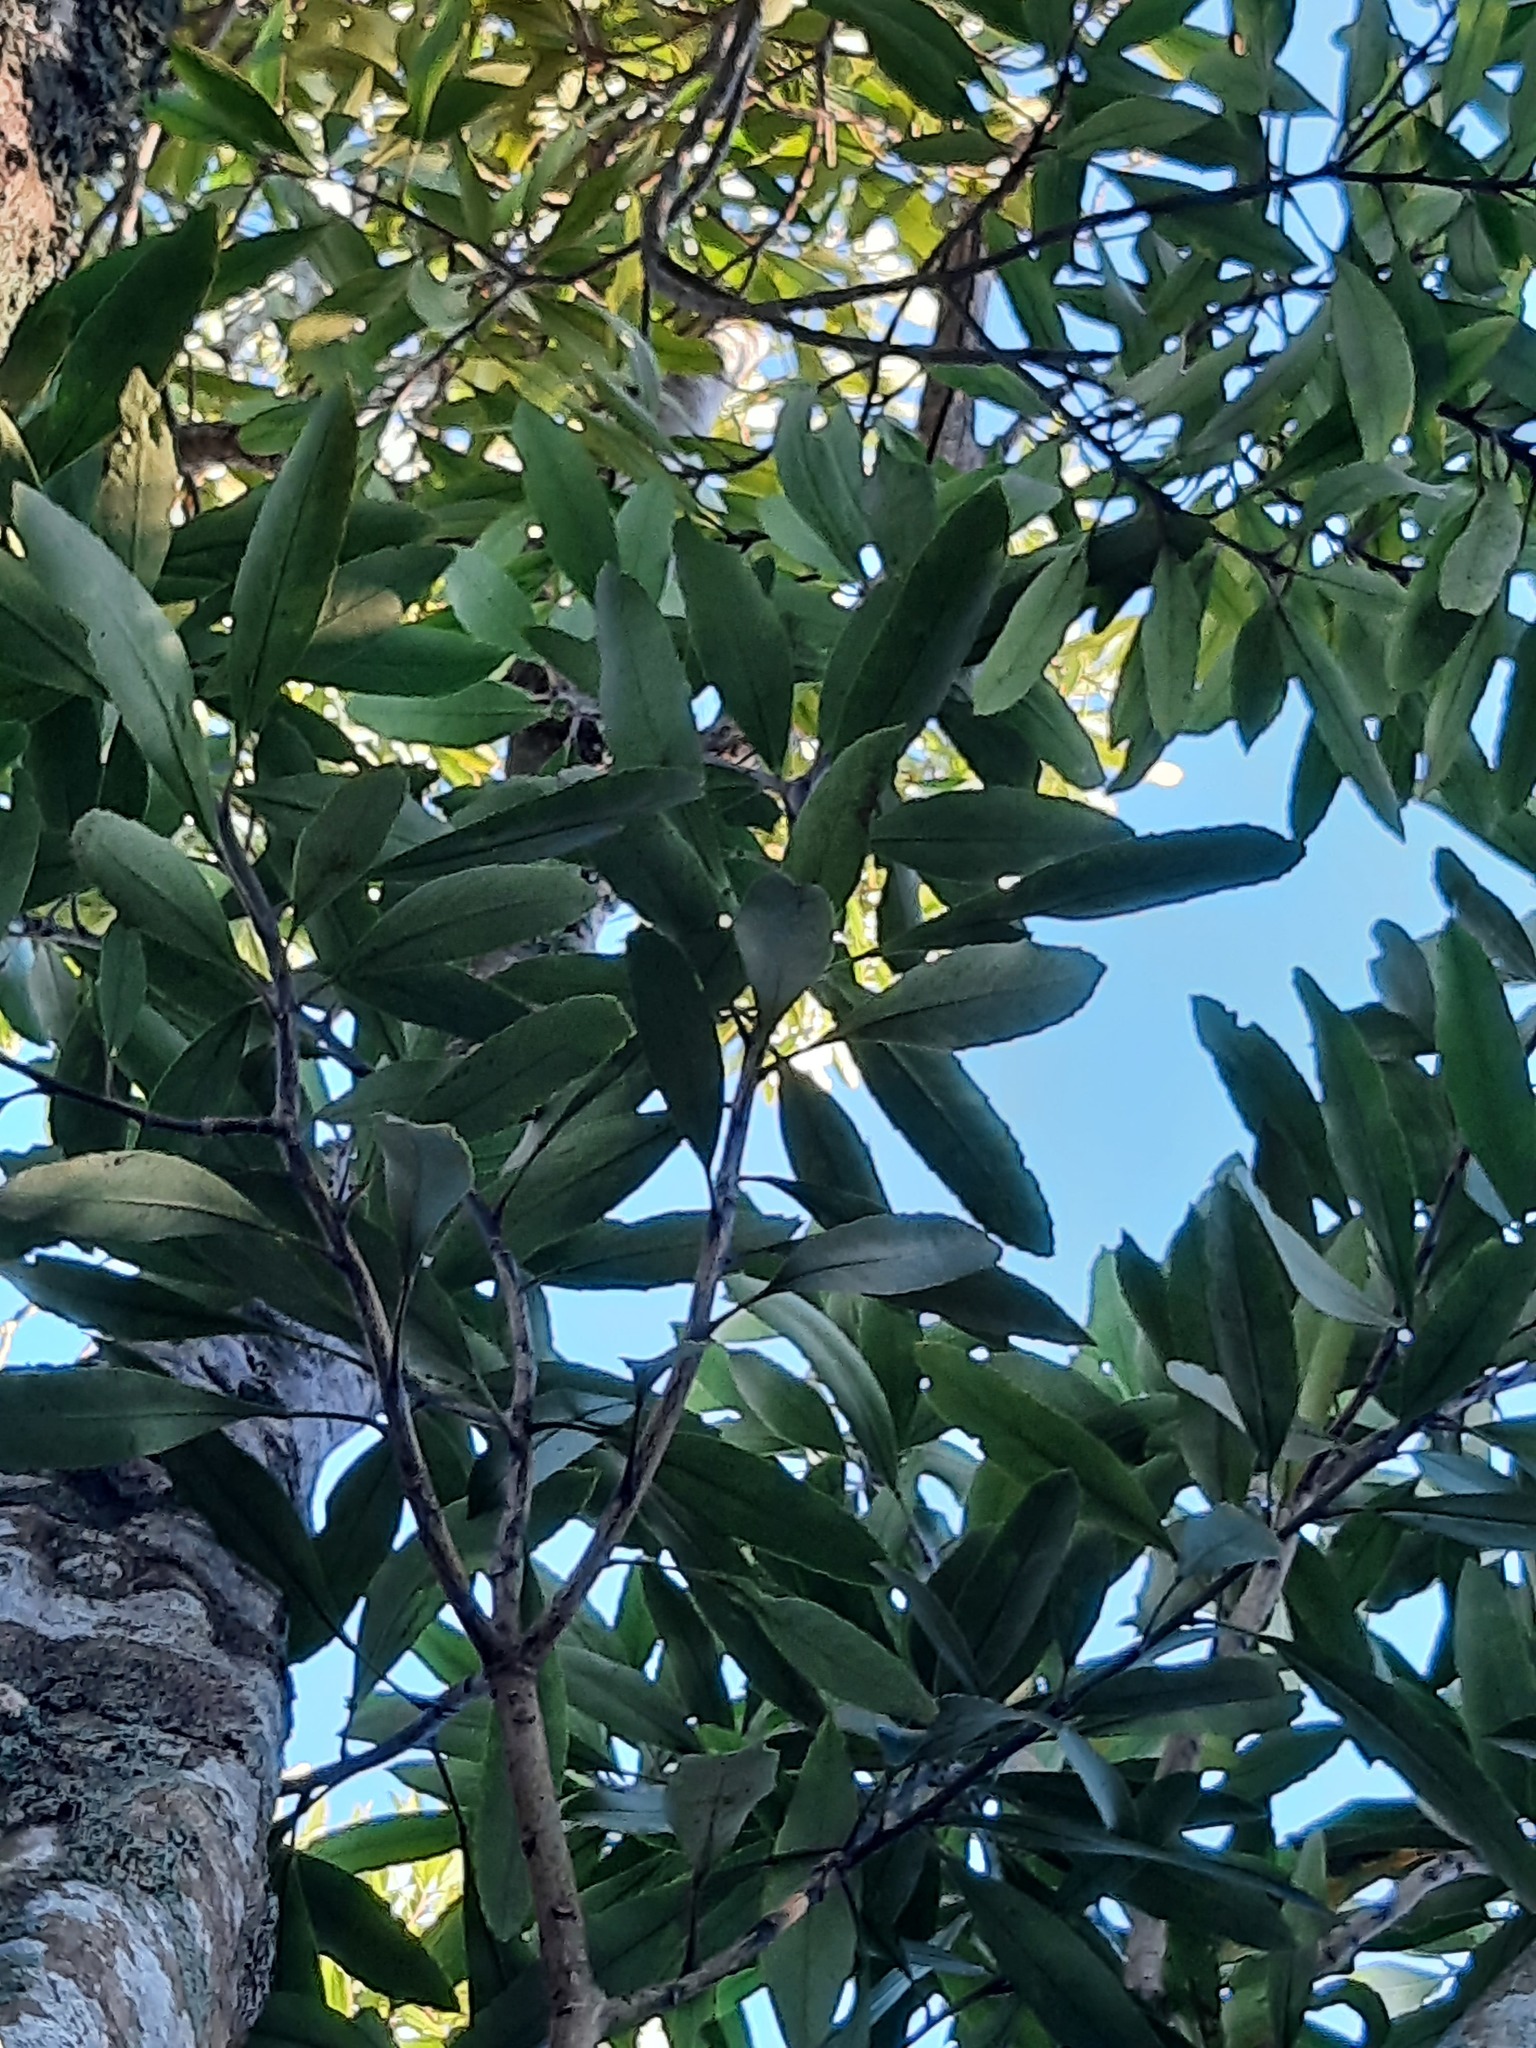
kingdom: Plantae
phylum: Tracheophyta
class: Magnoliopsida
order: Apiales
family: Araliaceae
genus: Pseudopanax
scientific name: Pseudopanax crassifolius
